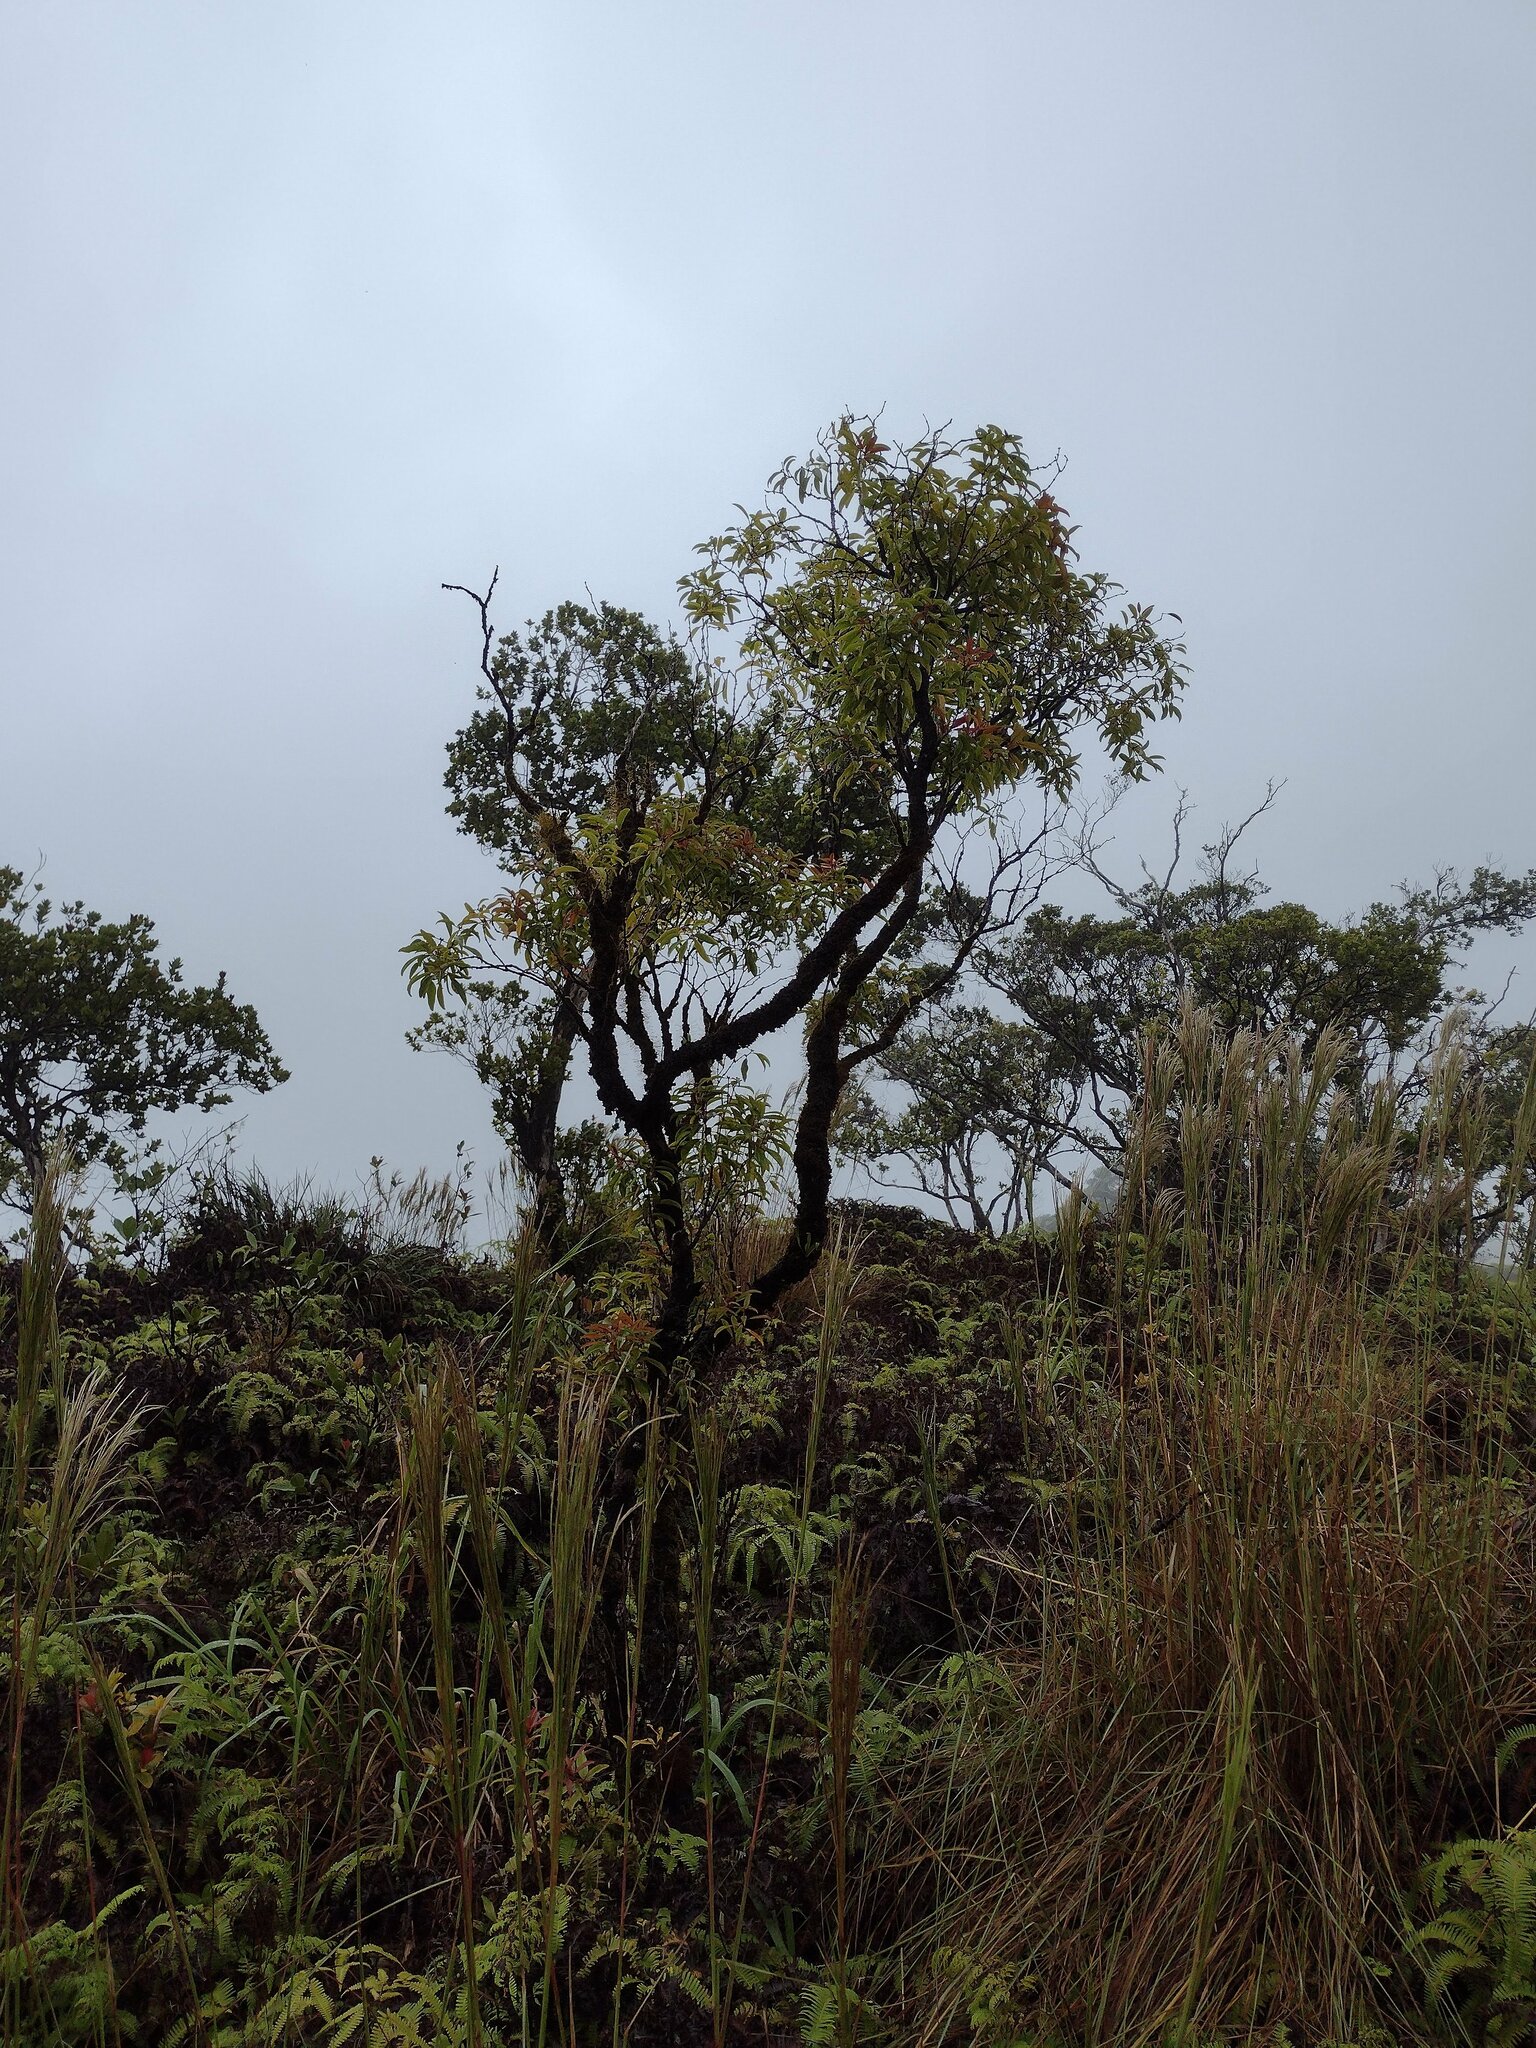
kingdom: Plantae
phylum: Tracheophyta
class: Magnoliopsida
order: Myrtales
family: Myrtaceae
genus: Metrosideros
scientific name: Metrosideros waialealae
